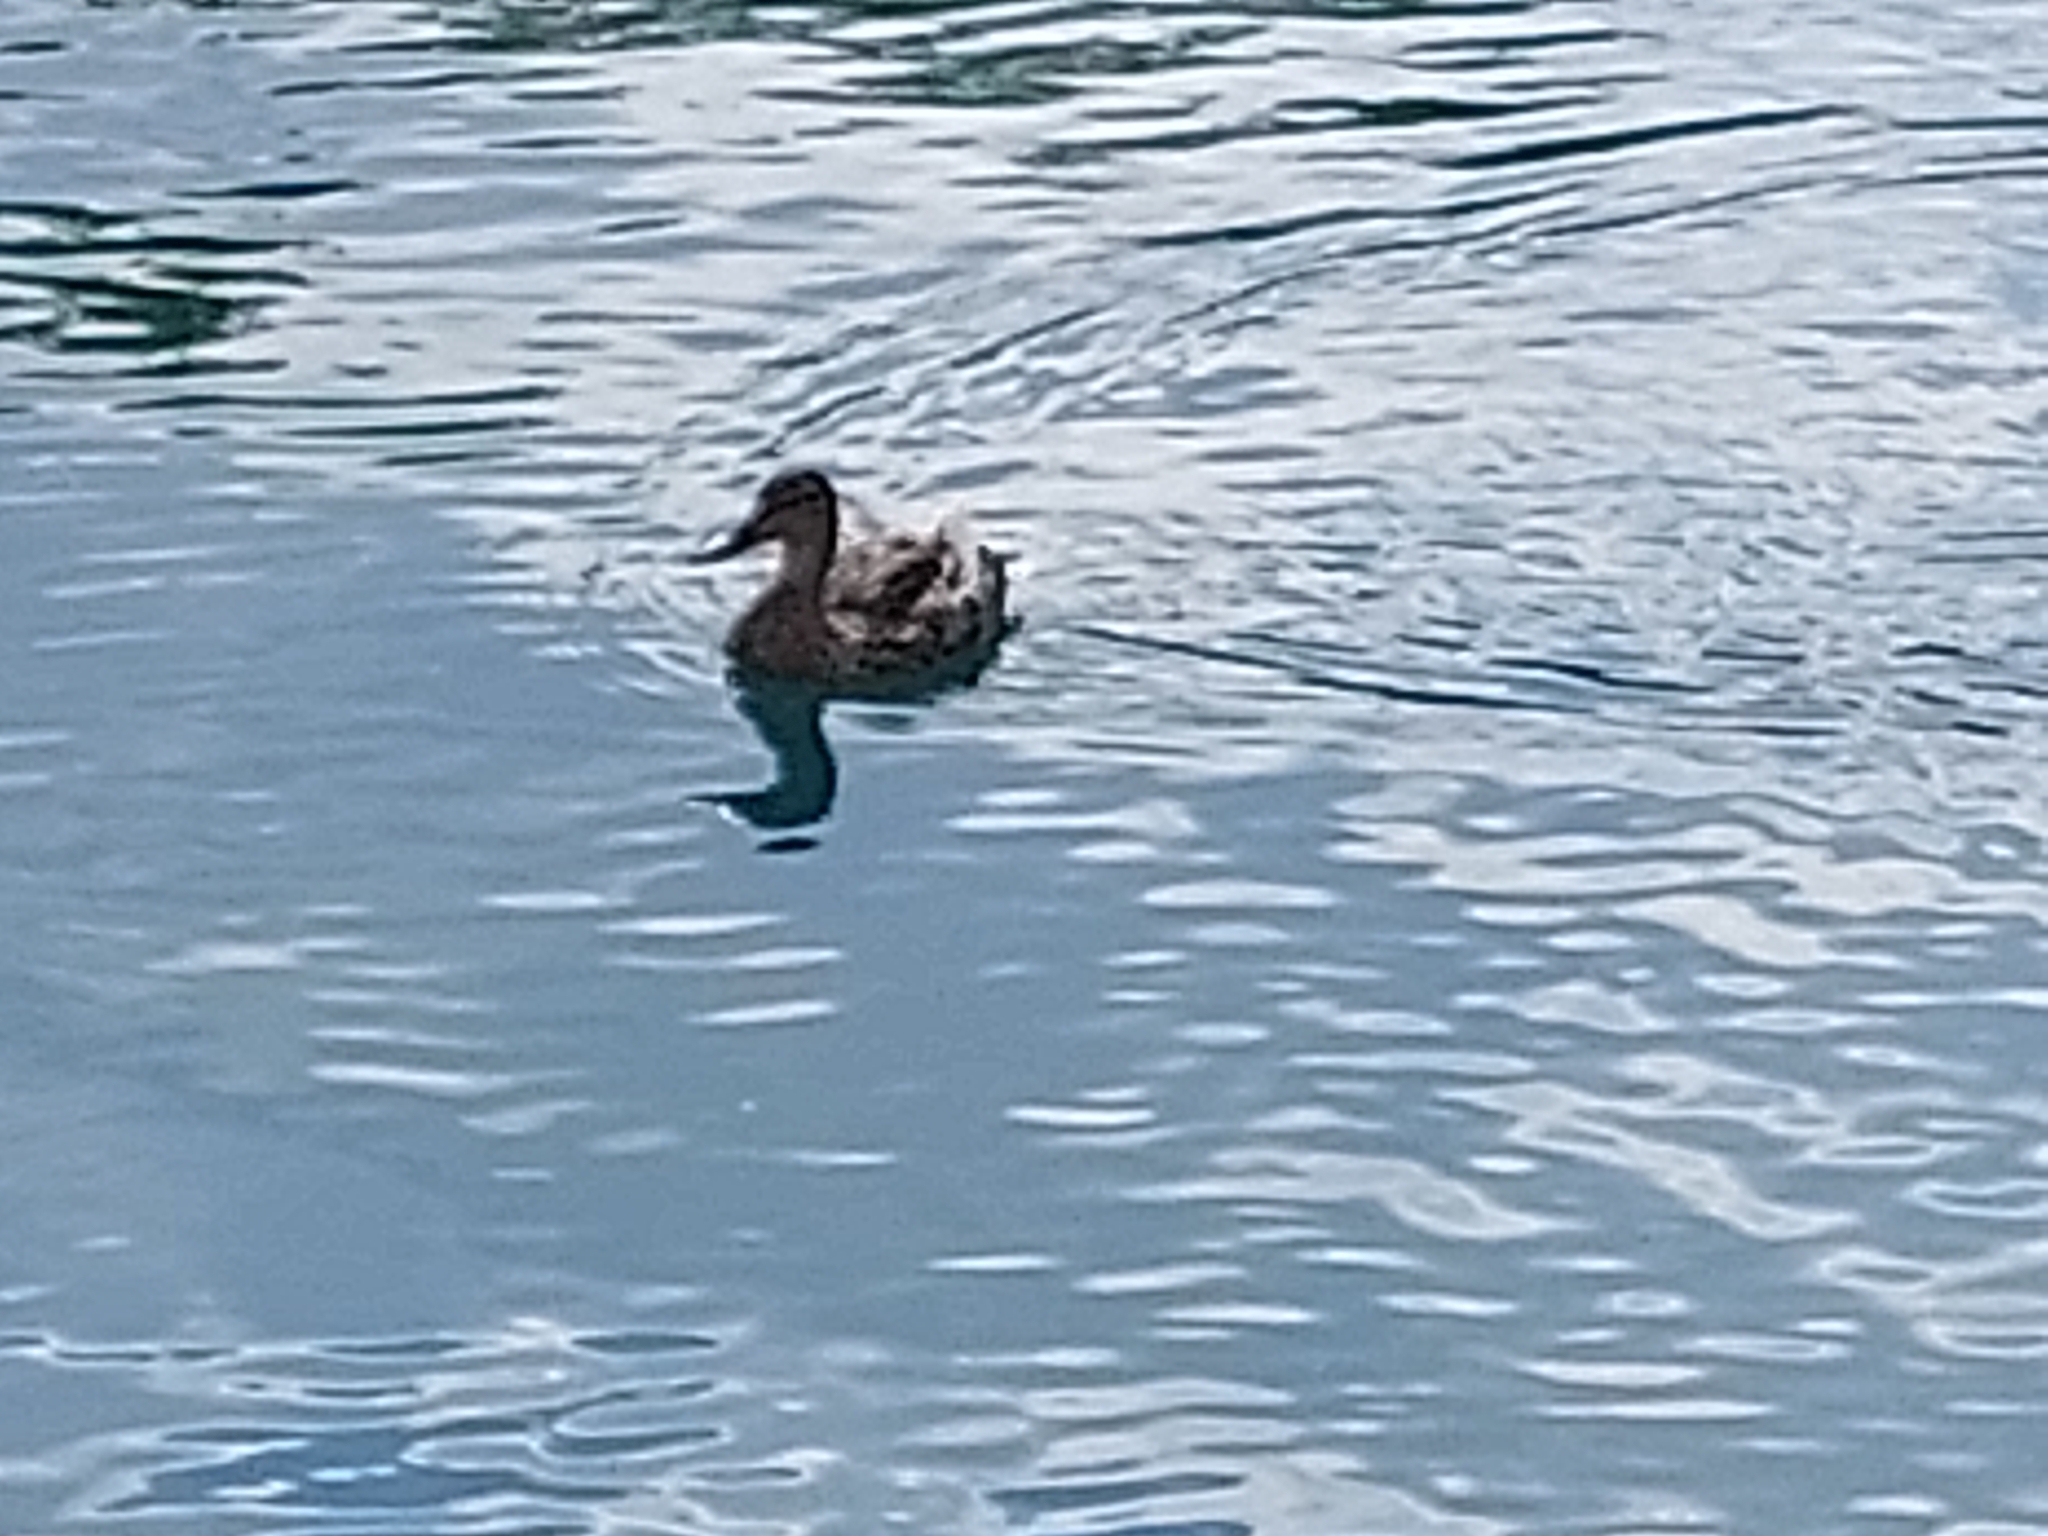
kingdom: Animalia
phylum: Chordata
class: Aves
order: Anseriformes
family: Anatidae
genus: Anas
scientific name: Anas platyrhynchos
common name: Mallard
